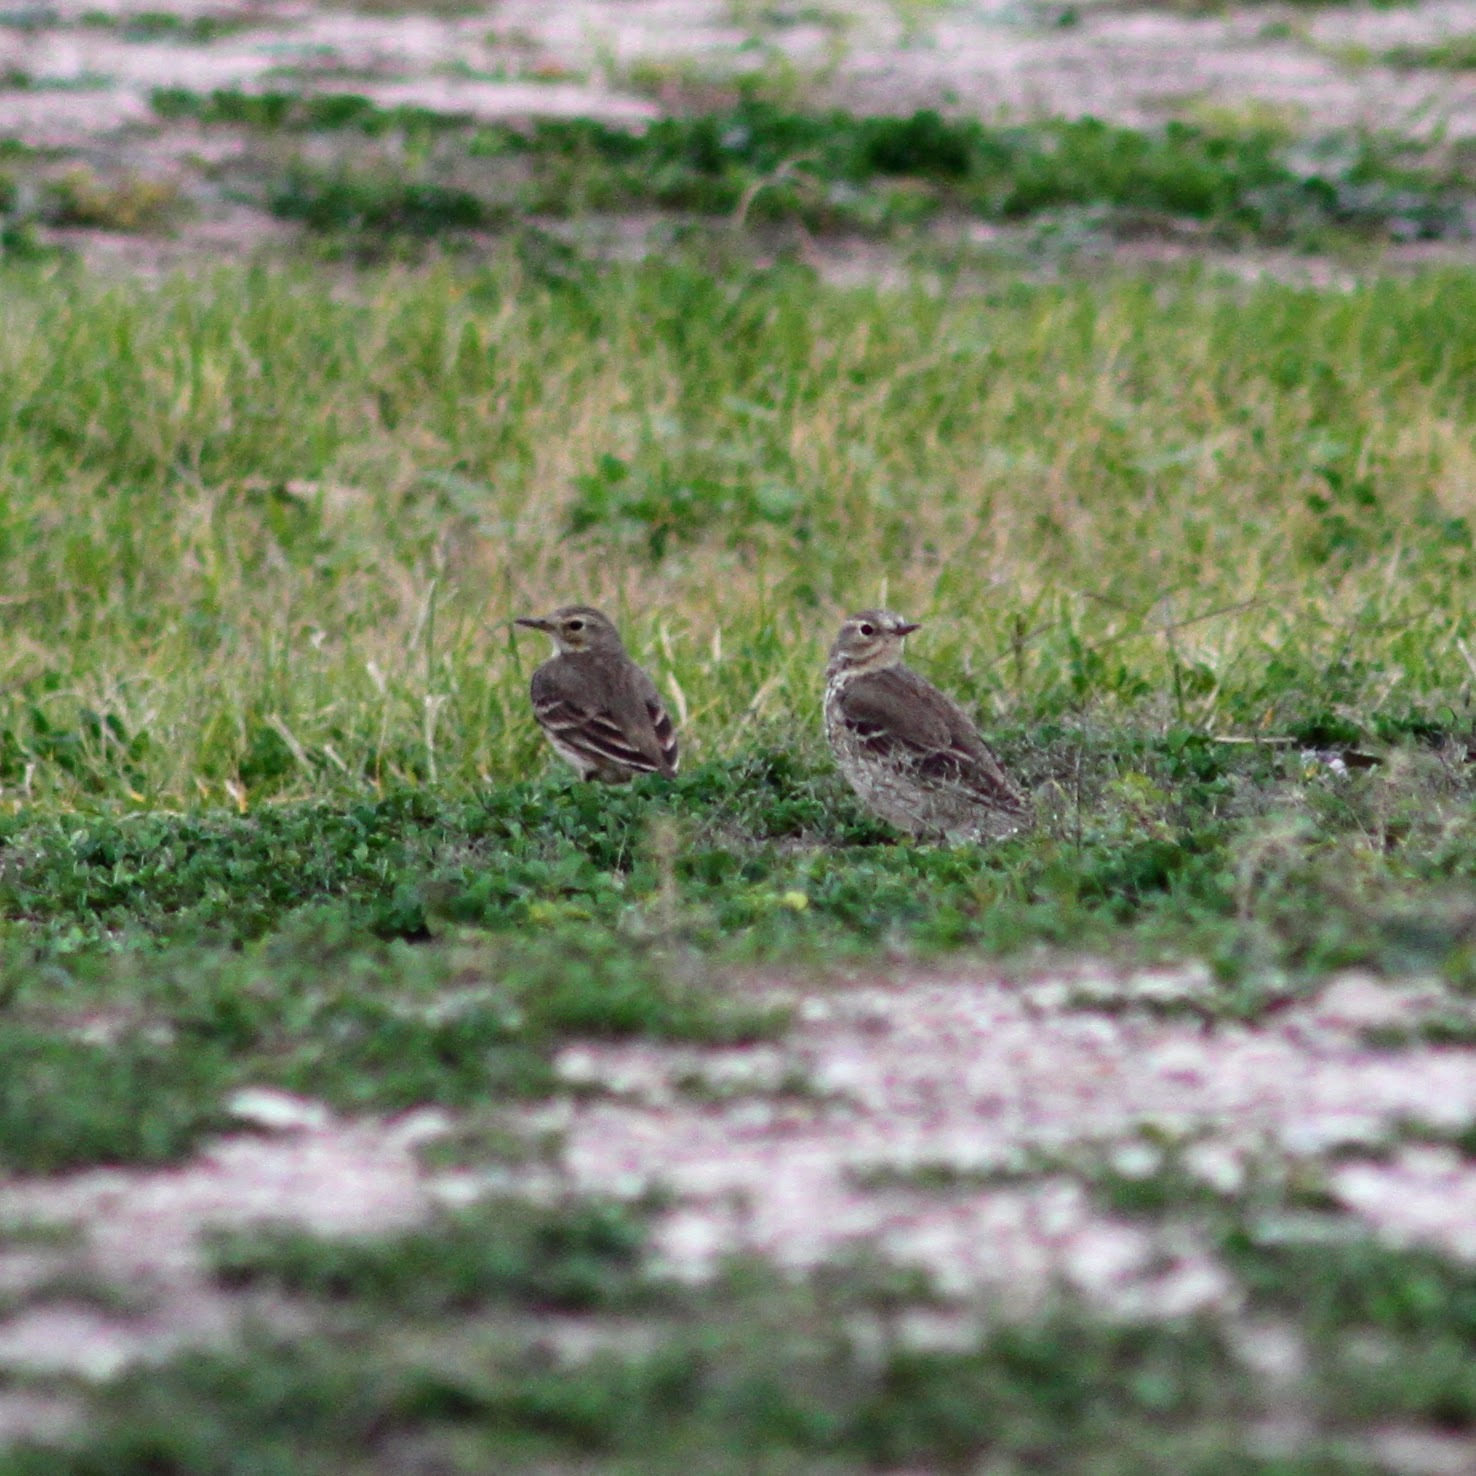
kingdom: Animalia
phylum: Chordata
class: Aves
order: Passeriformes
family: Motacillidae
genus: Anthus
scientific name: Anthus rubescens
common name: Buff-bellied pipit
